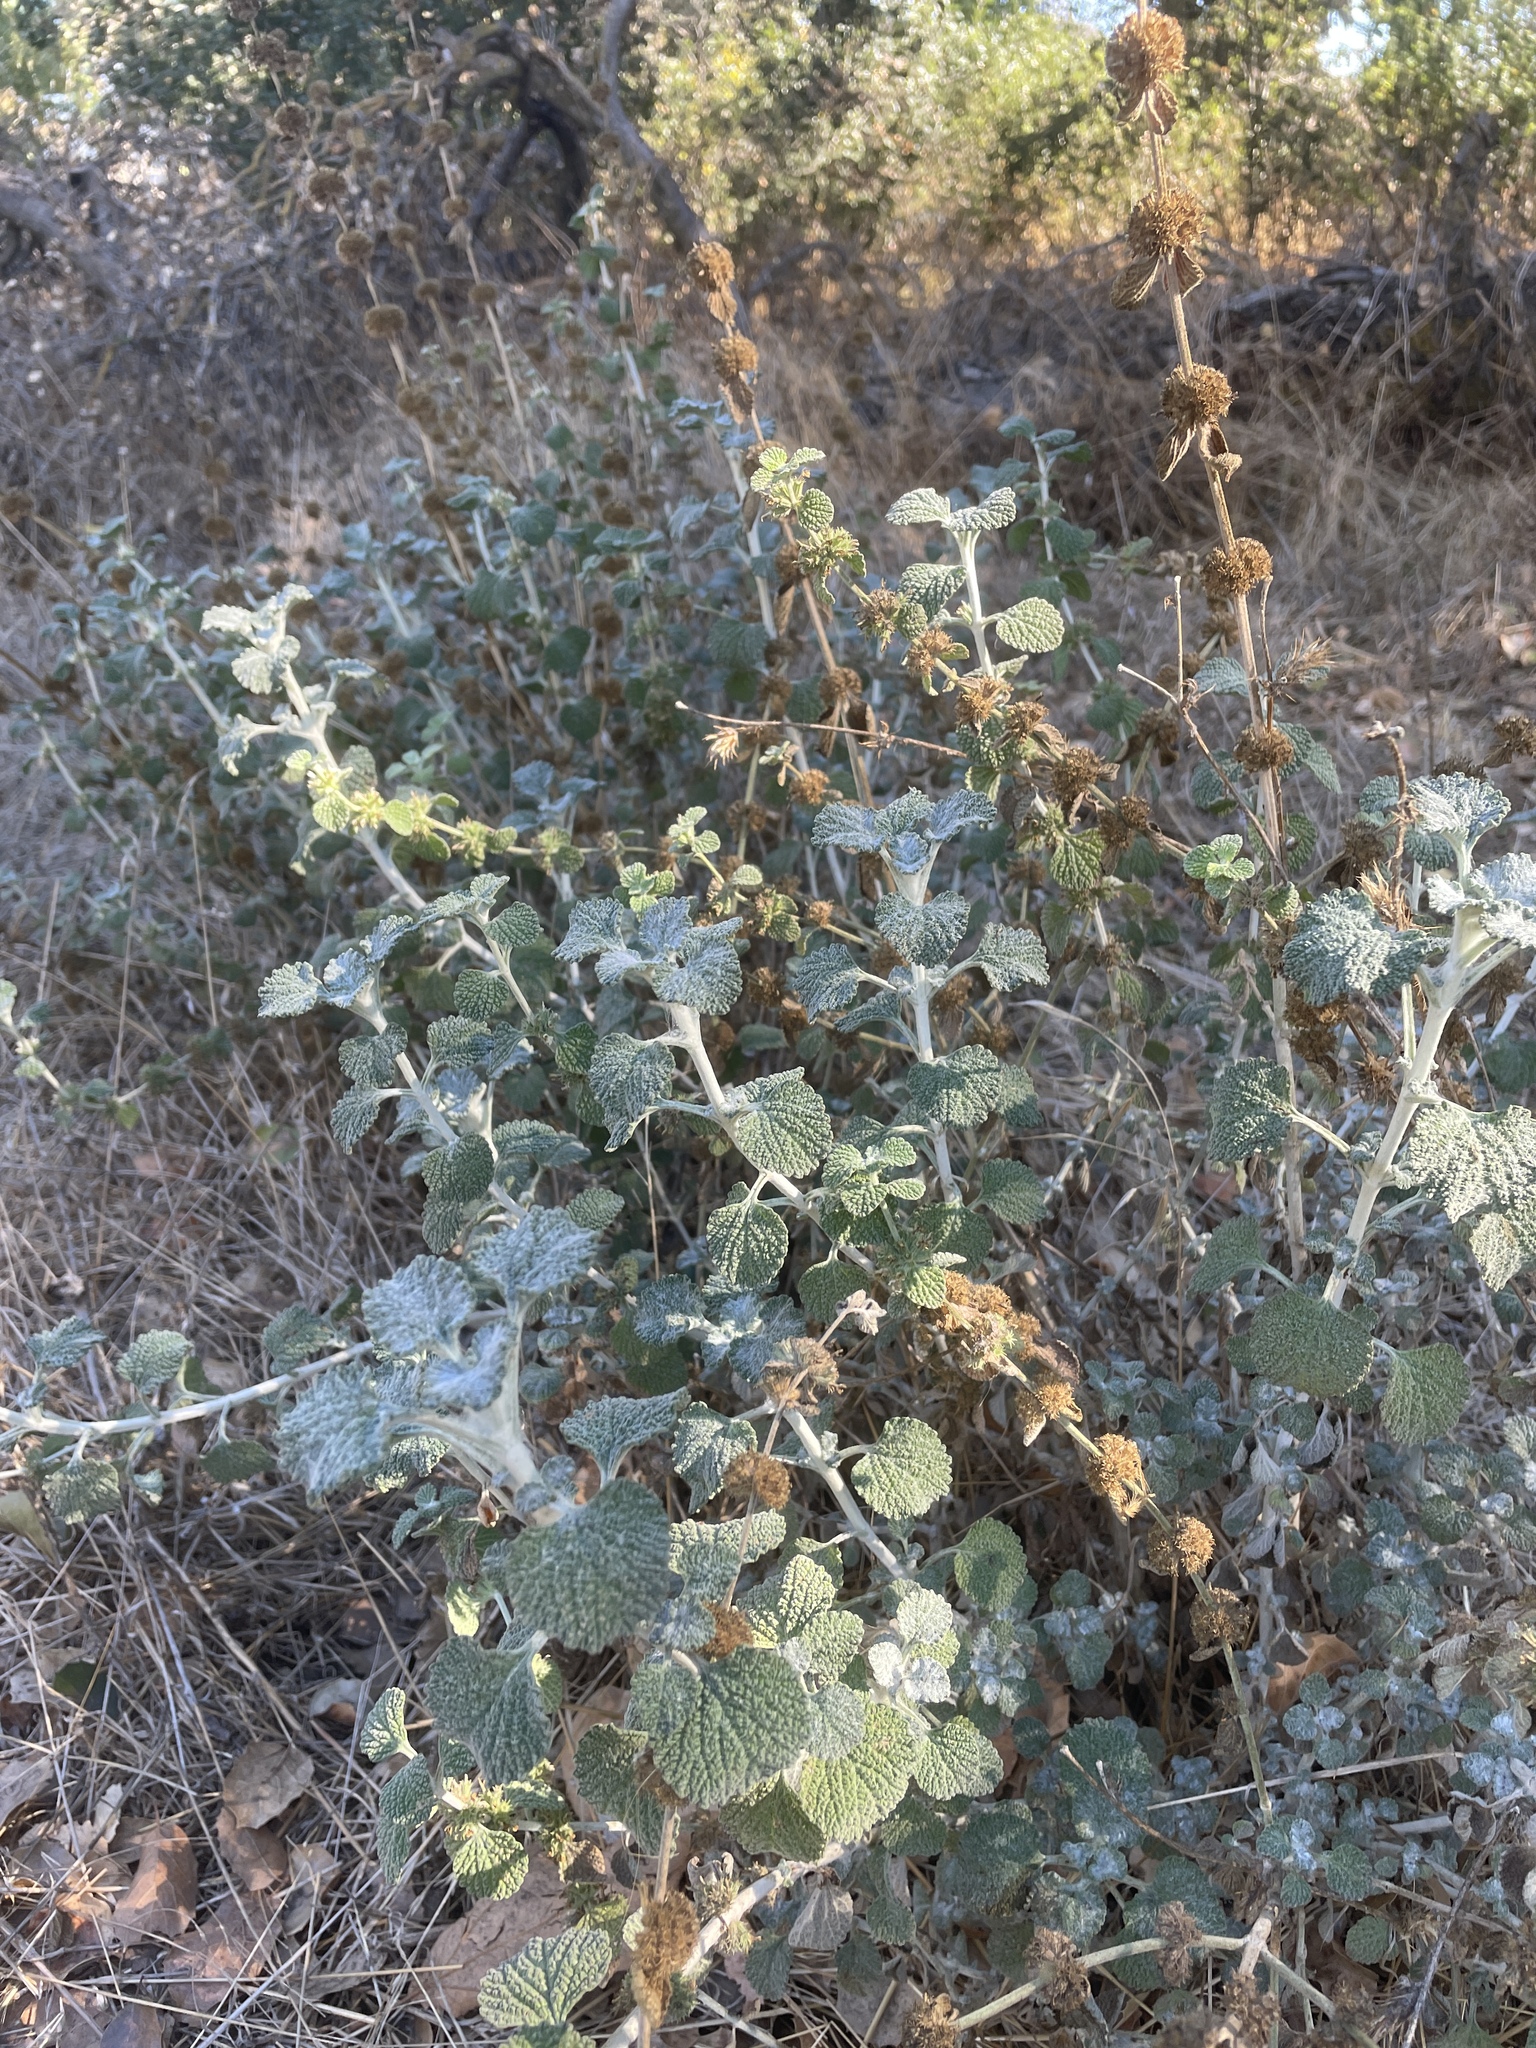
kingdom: Plantae
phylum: Tracheophyta
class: Magnoliopsida
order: Lamiales
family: Lamiaceae
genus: Marrubium
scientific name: Marrubium vulgare
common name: Horehound
